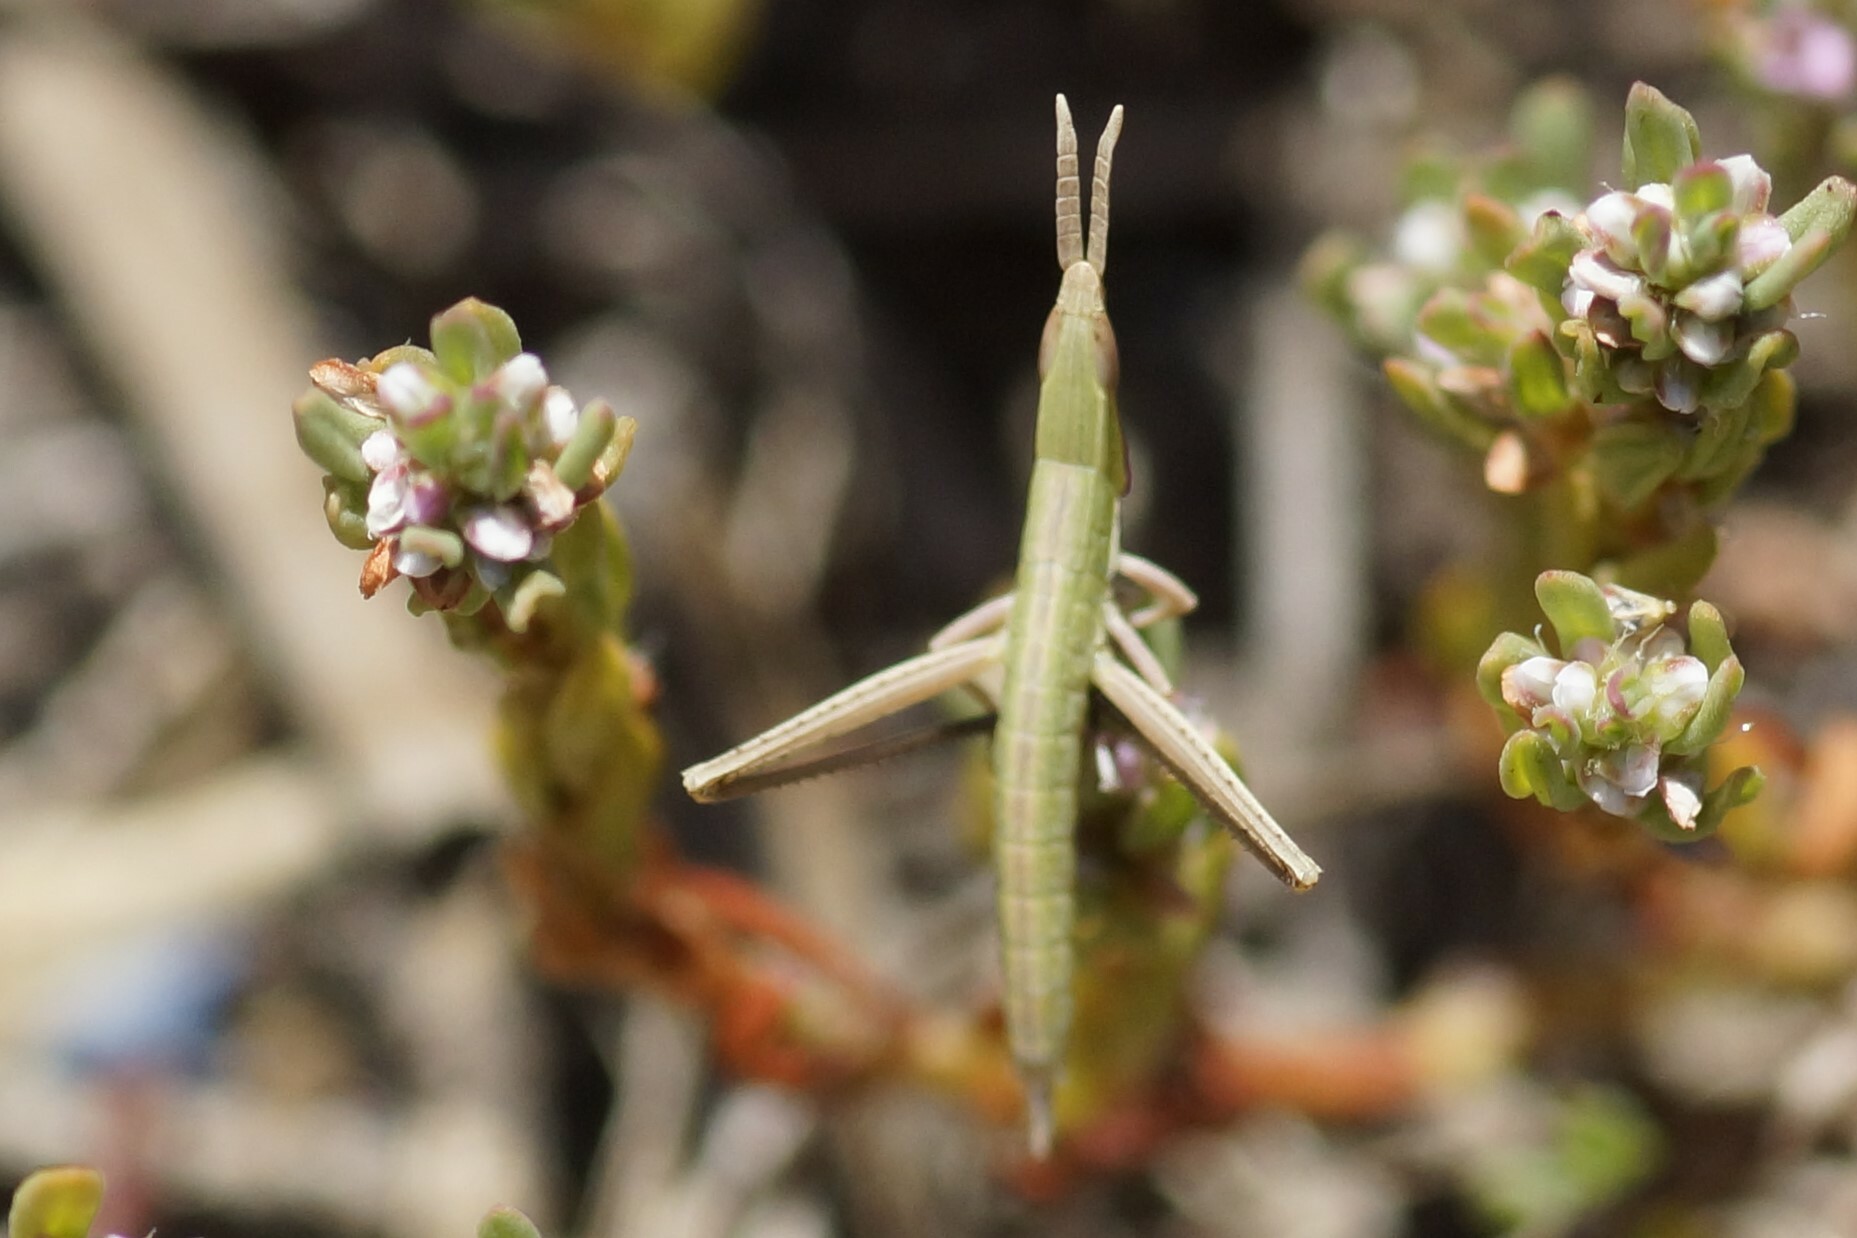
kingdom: Animalia
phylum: Arthropoda
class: Insecta
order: Orthoptera
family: Acrididae
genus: Acrida
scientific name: Acrida conica
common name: Giant green slantface
